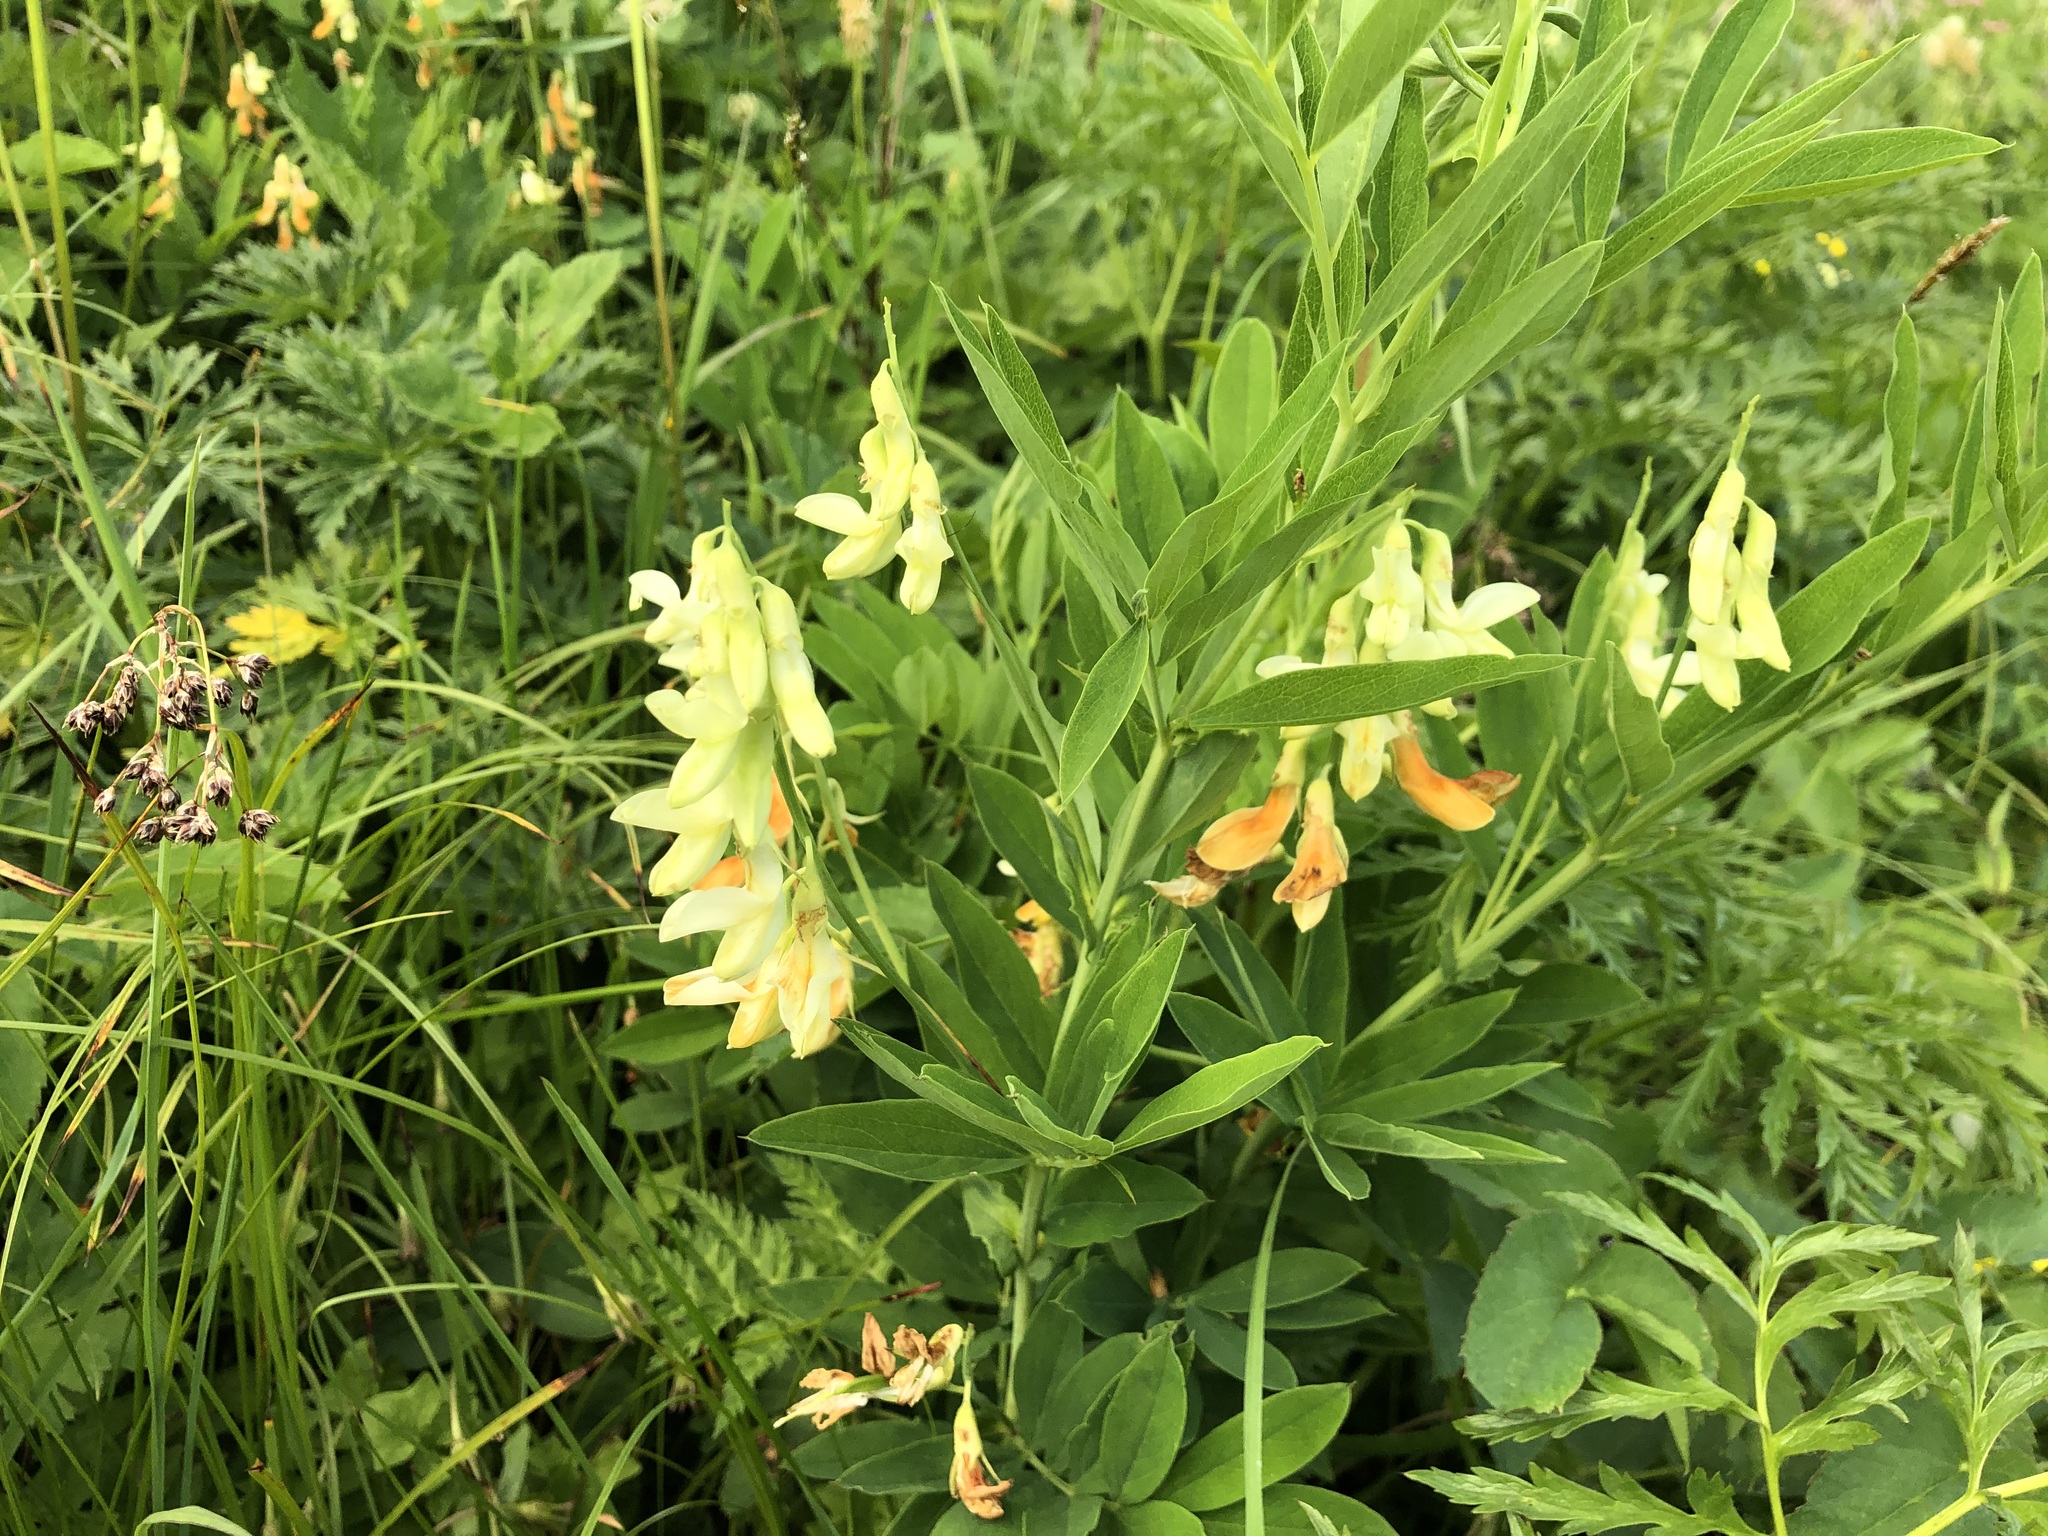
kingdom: Plantae
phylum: Tracheophyta
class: Magnoliopsida
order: Fabales
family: Fabaceae
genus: Lathyrus
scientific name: Lathyrus laevigatus
